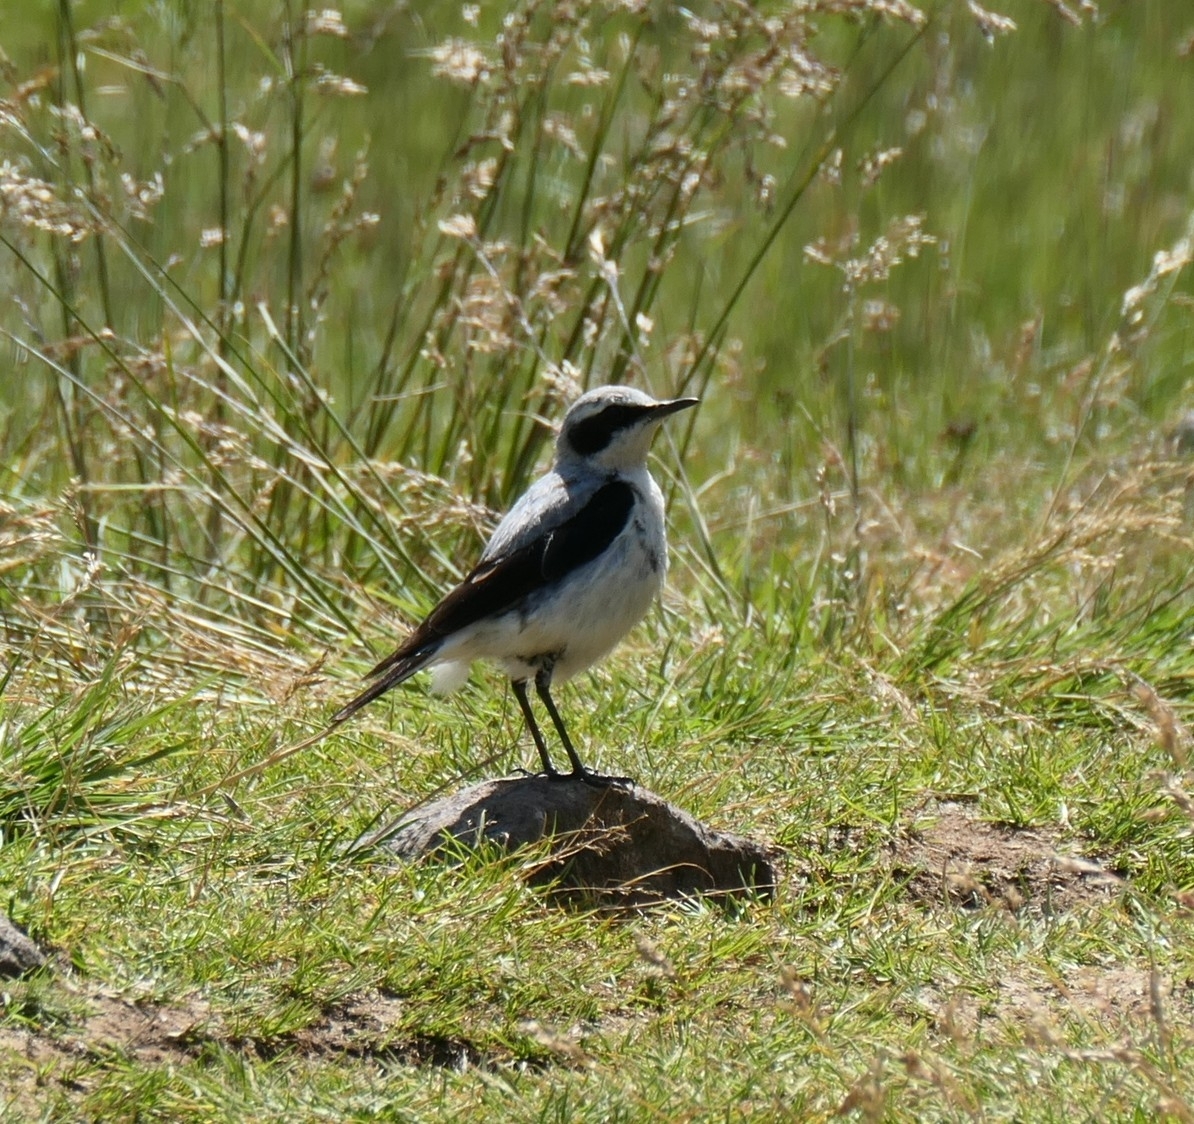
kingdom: Animalia
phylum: Chordata
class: Aves
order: Passeriformes
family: Muscicapidae
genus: Oenanthe
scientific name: Oenanthe oenanthe
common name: Northern wheatear
